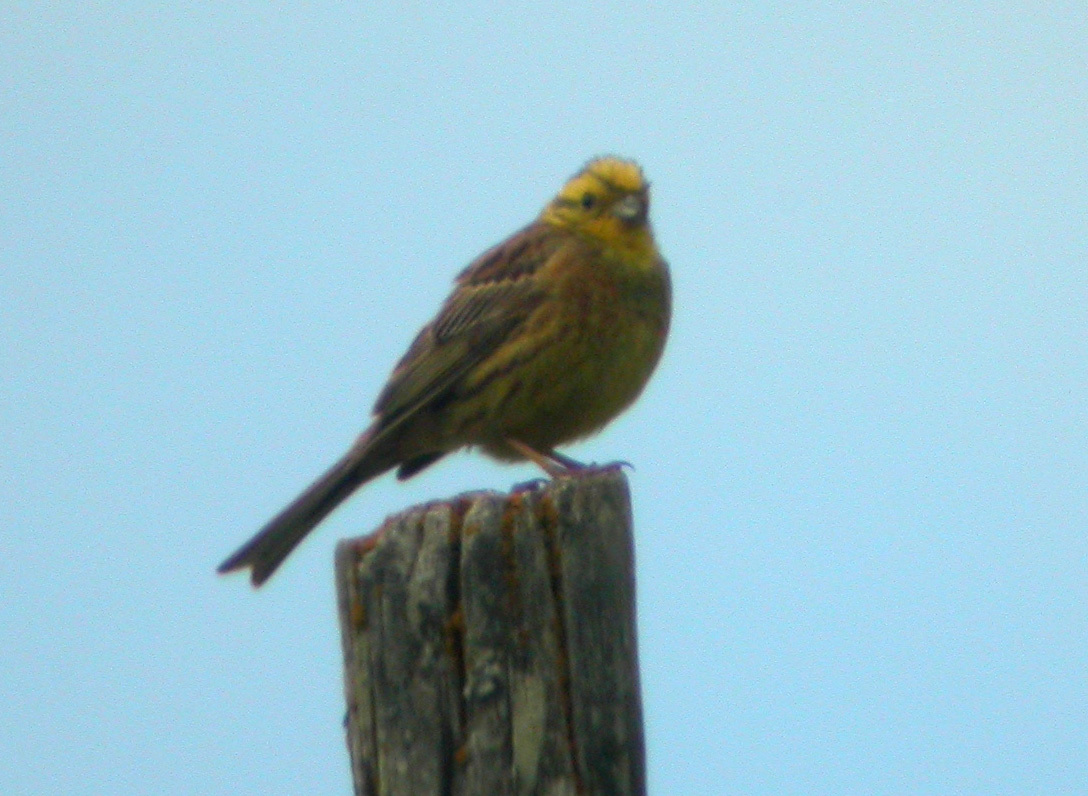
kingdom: Animalia
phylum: Chordata
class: Aves
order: Passeriformes
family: Emberizidae
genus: Emberiza
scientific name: Emberiza citrinella
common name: Yellowhammer
